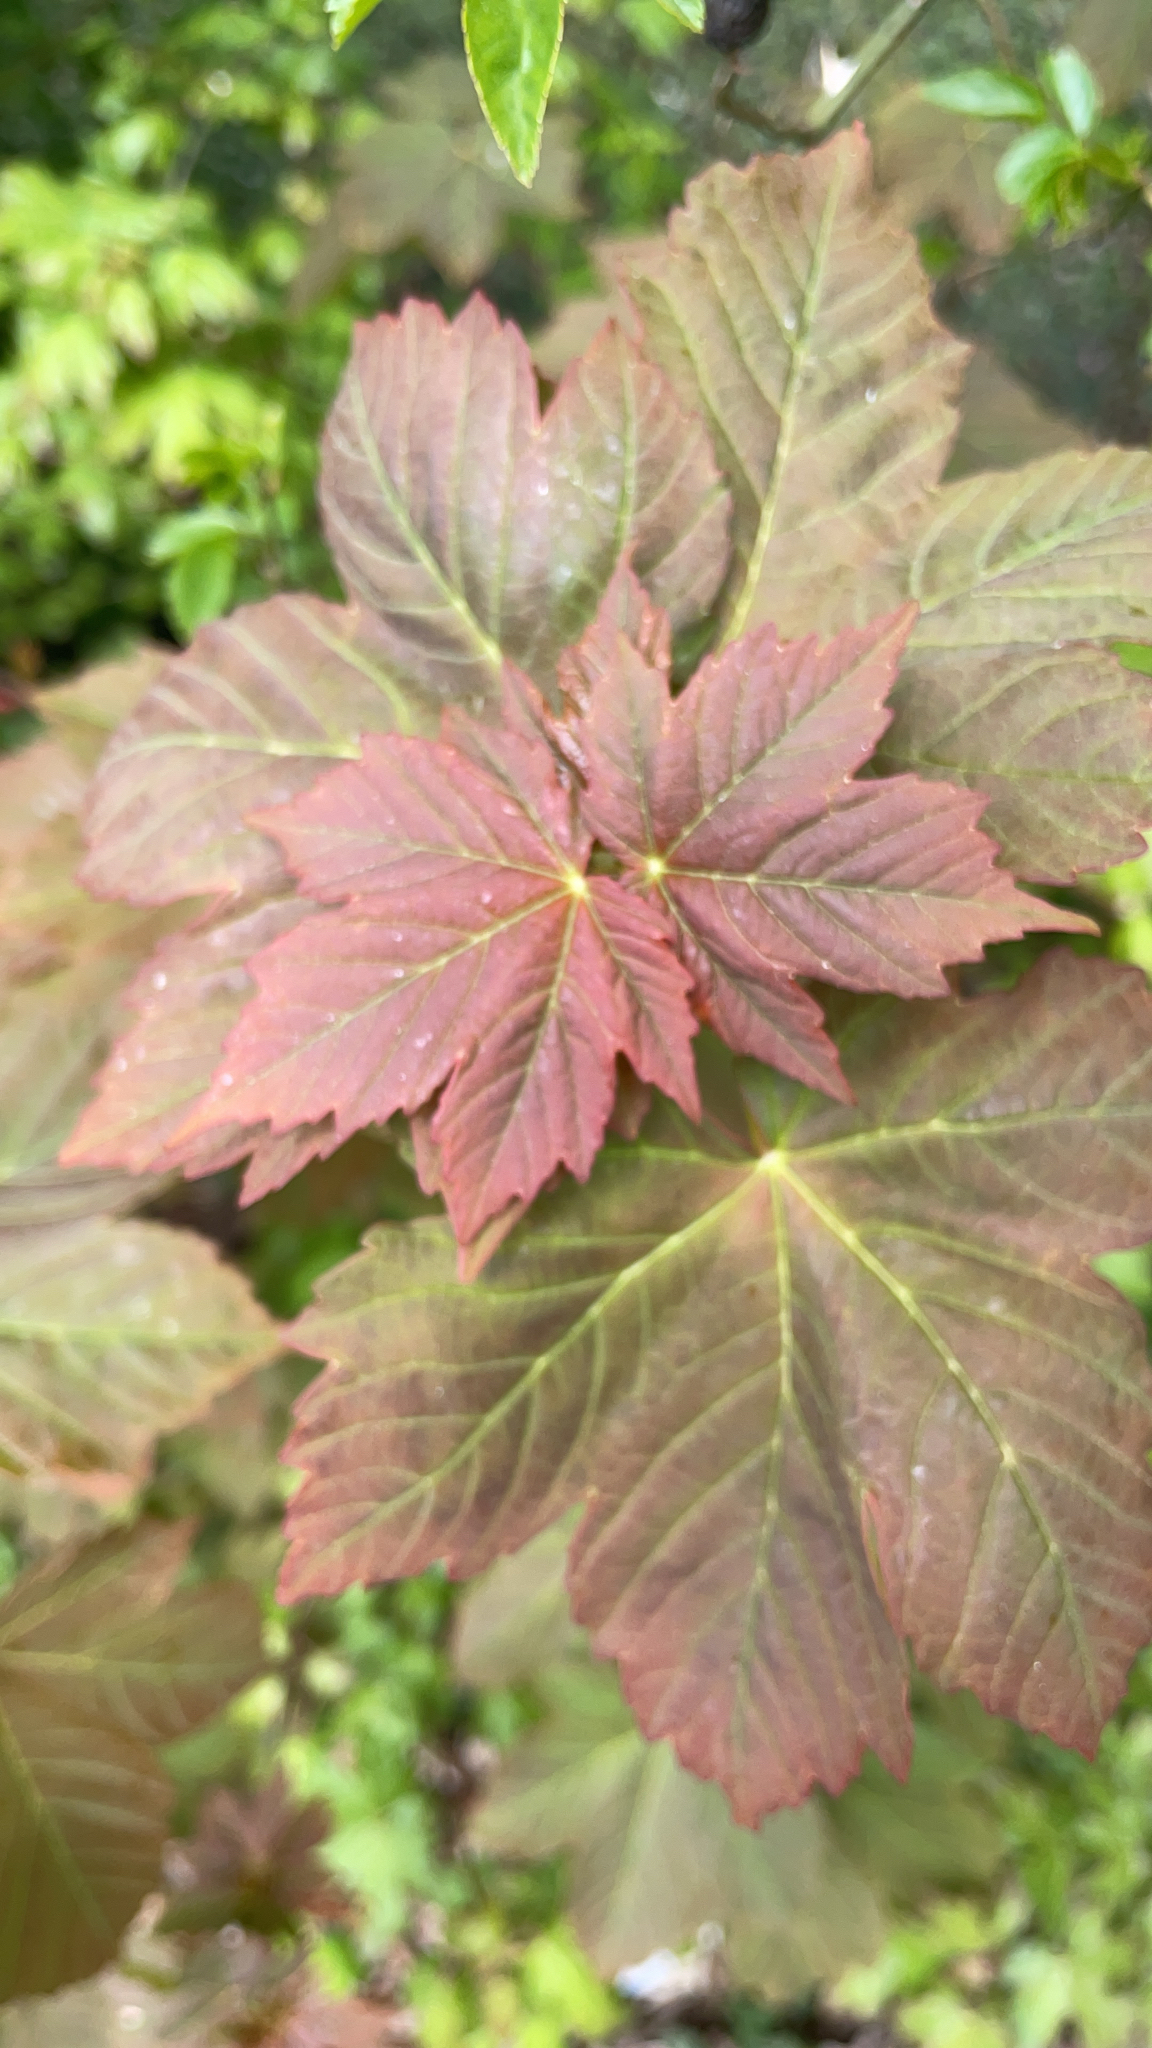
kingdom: Plantae
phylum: Tracheophyta
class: Magnoliopsida
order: Sapindales
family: Sapindaceae
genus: Acer
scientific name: Acer pseudoplatanus
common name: Sycamore
